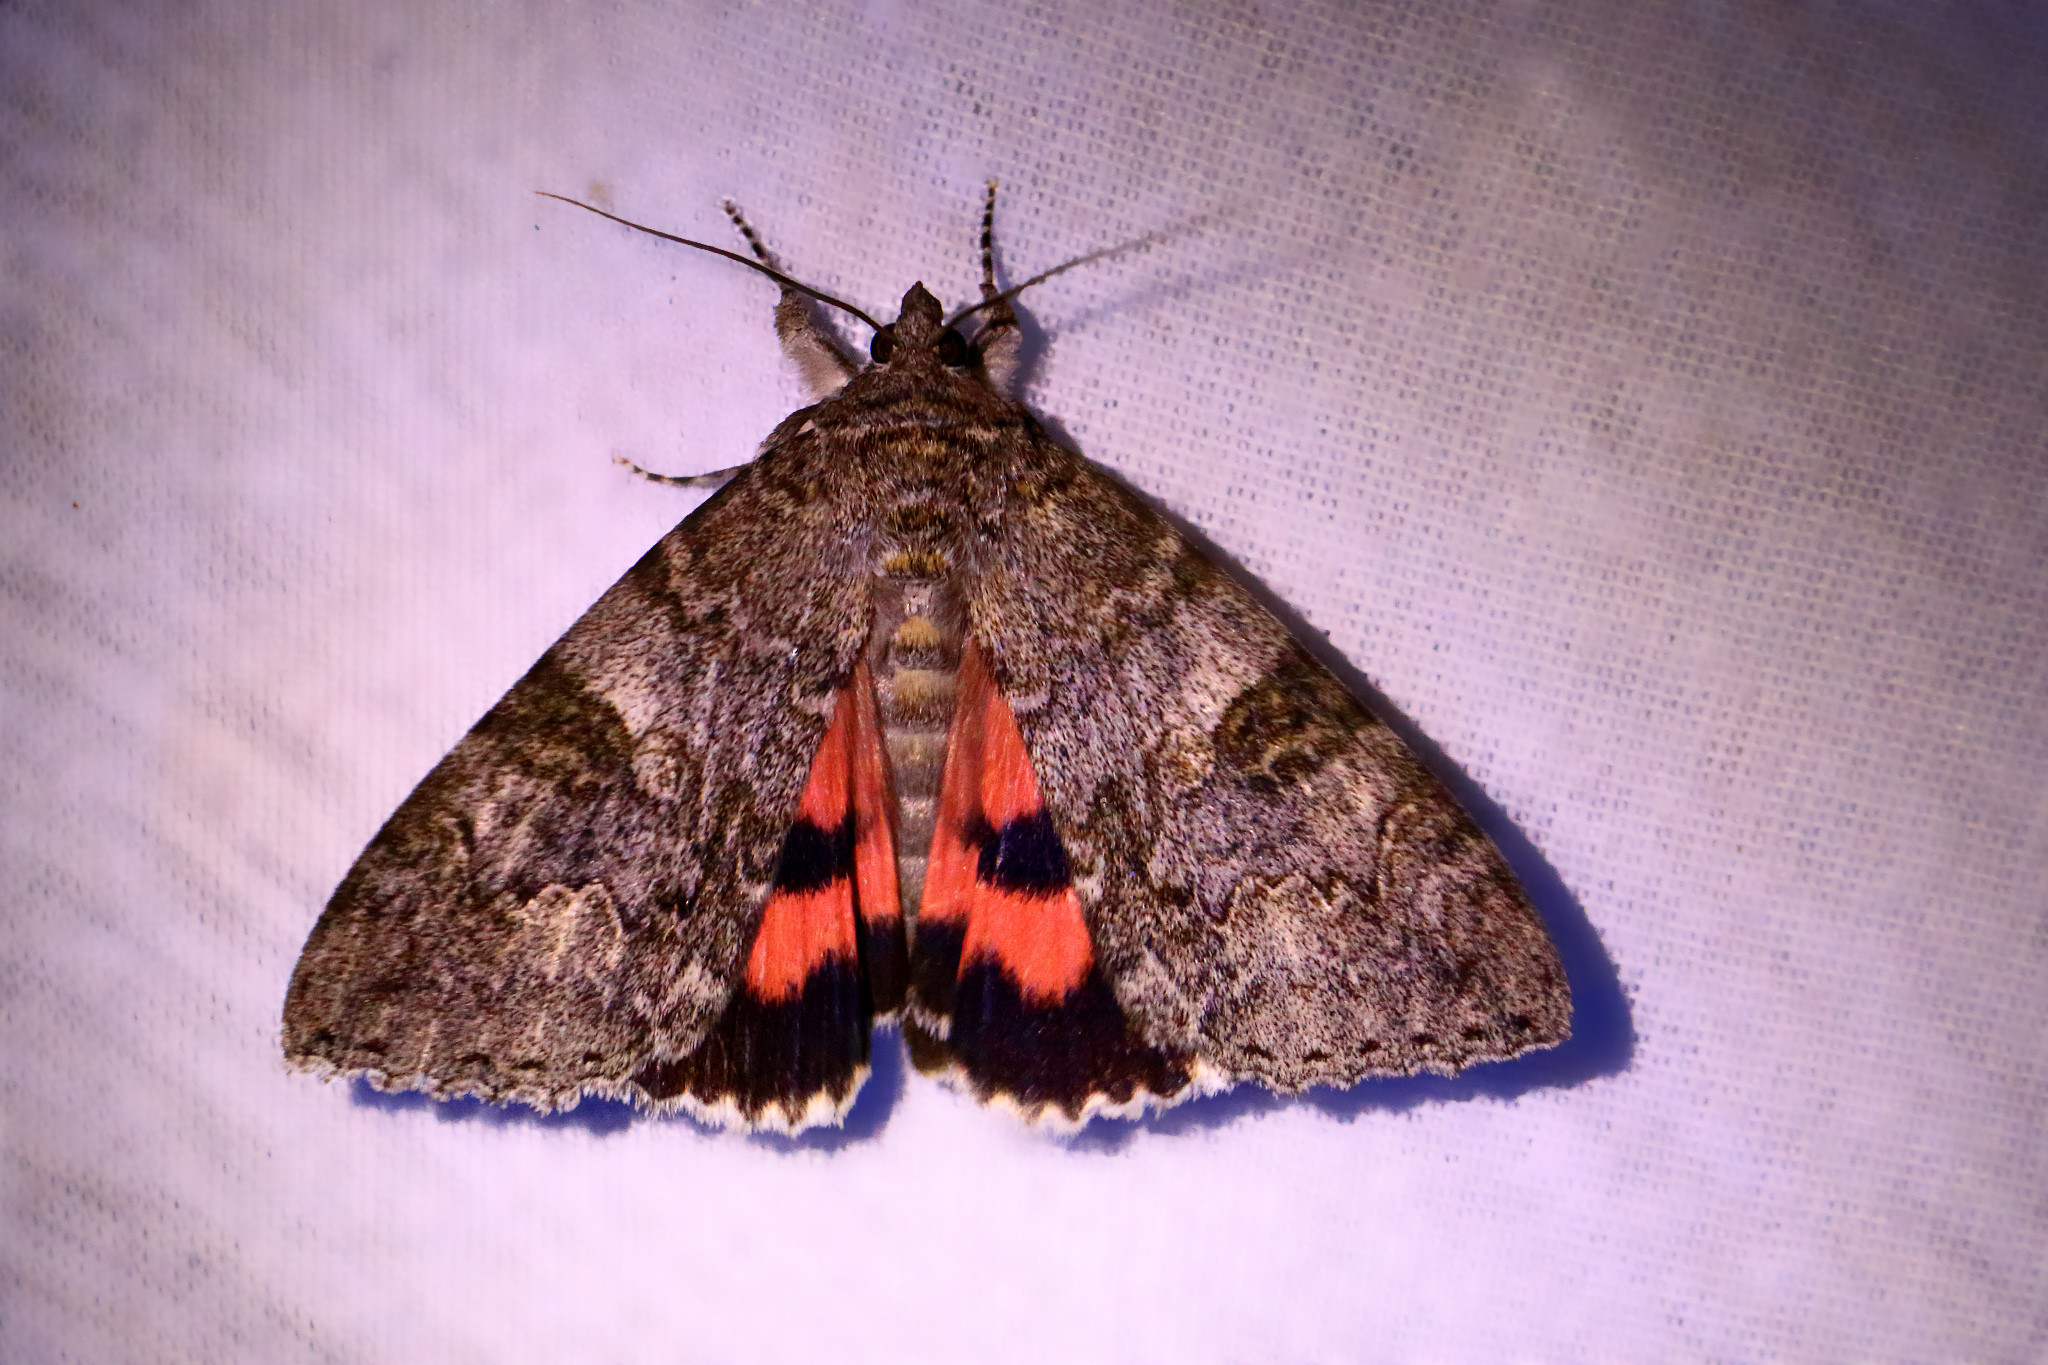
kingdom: Animalia
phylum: Arthropoda
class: Insecta
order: Lepidoptera
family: Erebidae
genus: Catocala
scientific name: Catocala nupta
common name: Red underwing
